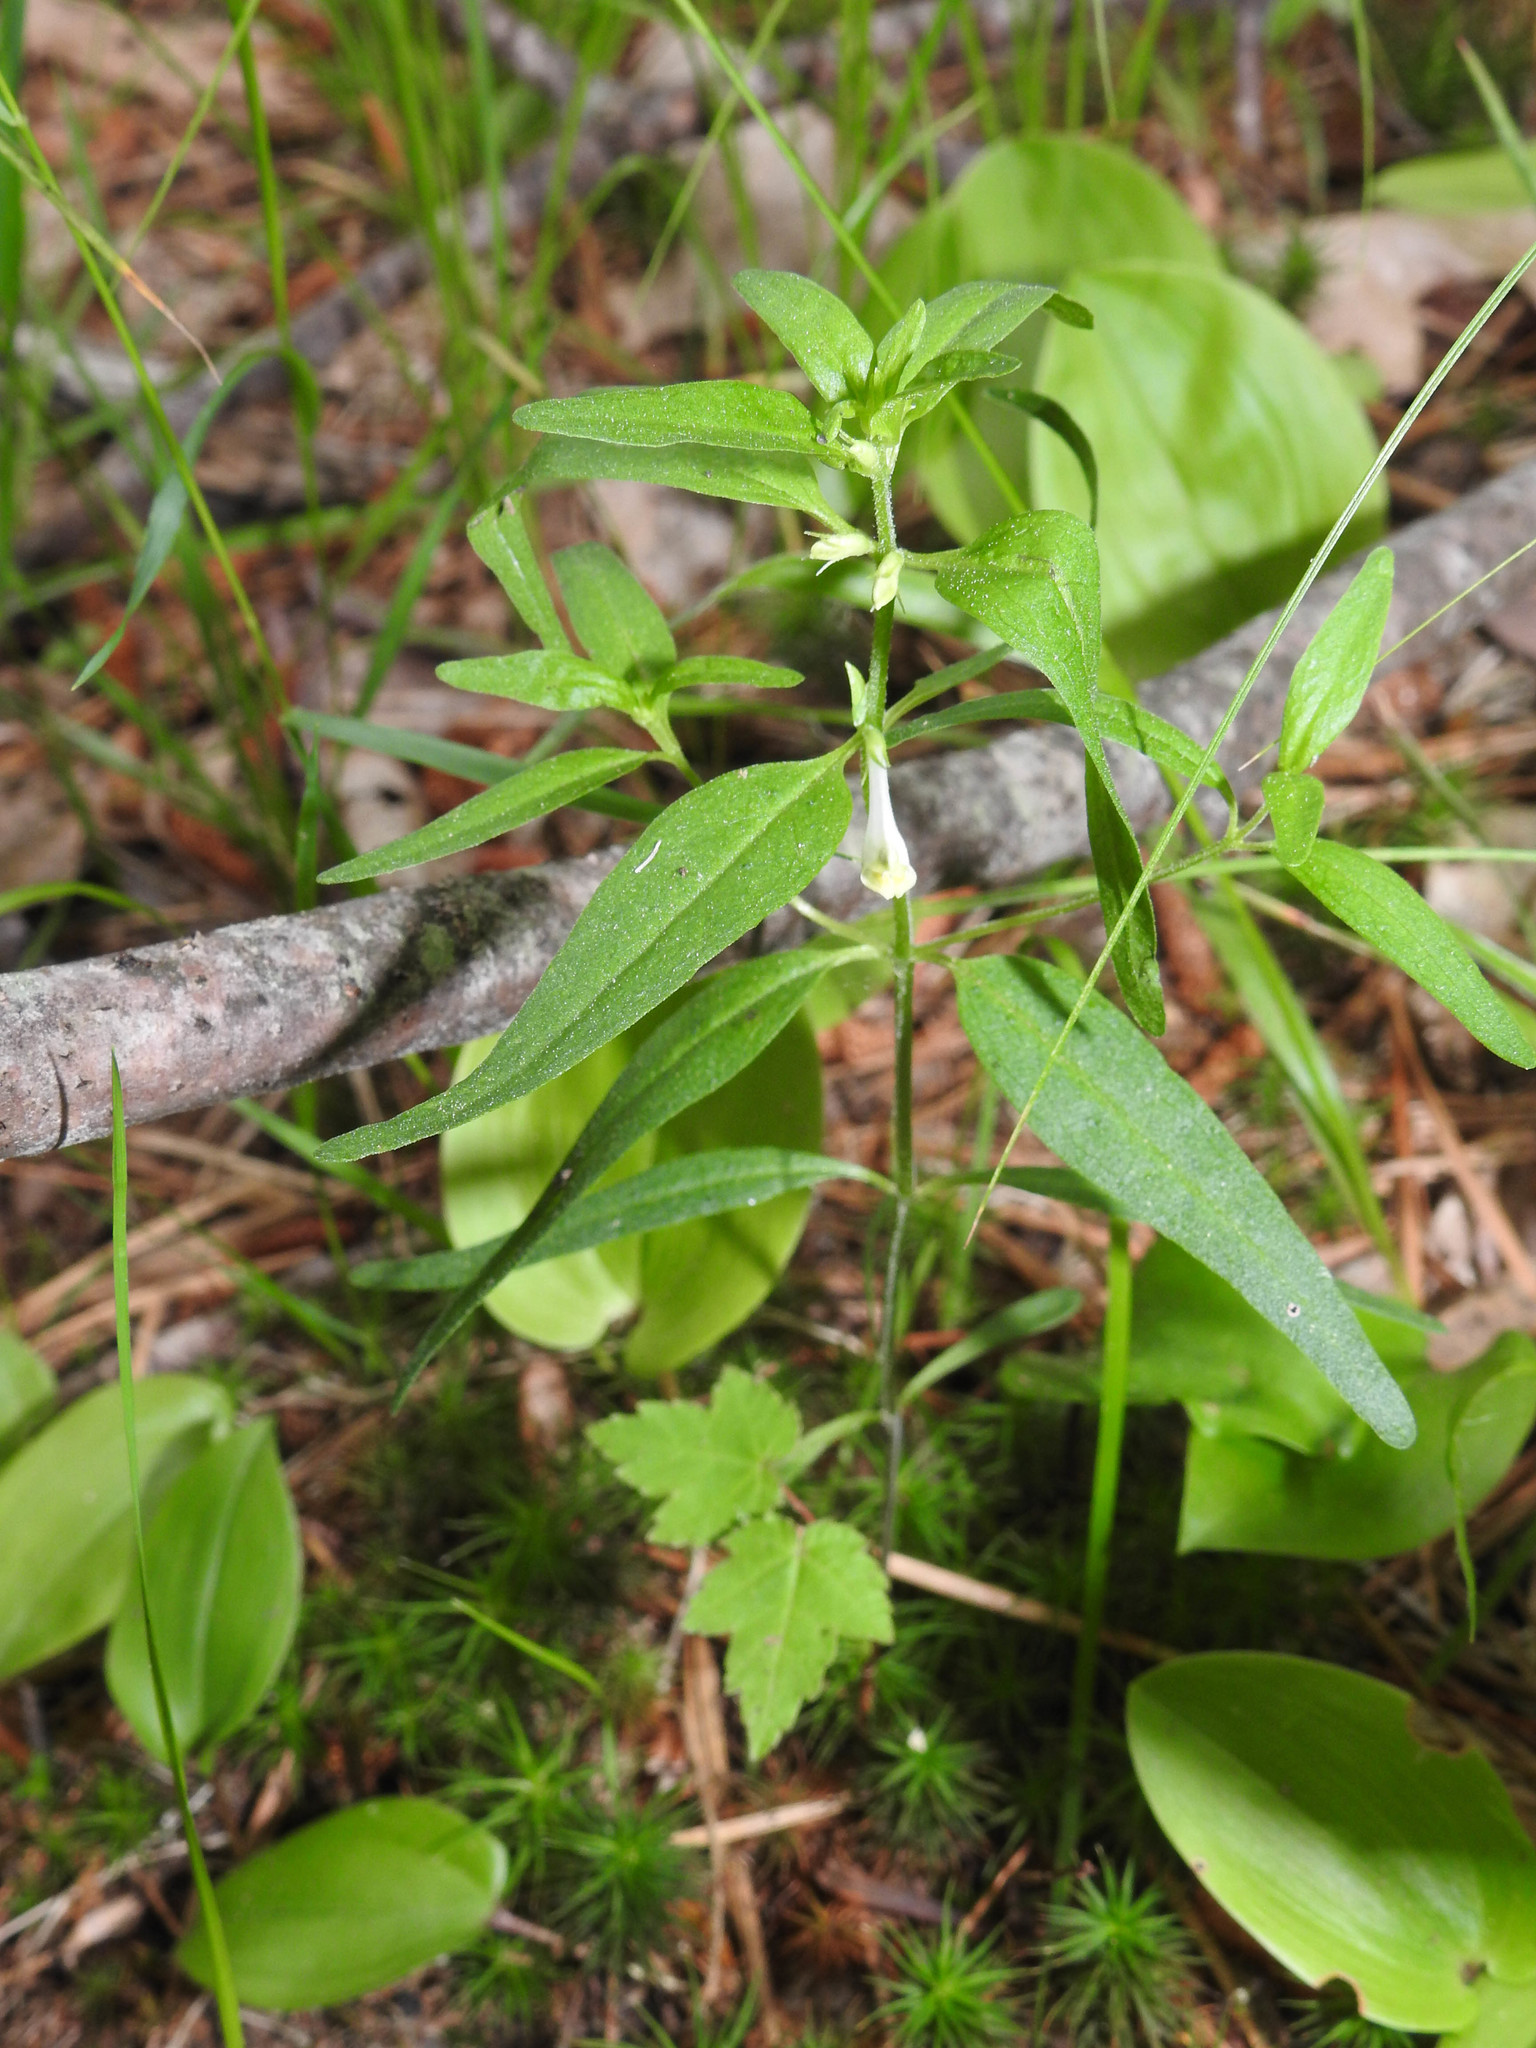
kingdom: Plantae
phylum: Tracheophyta
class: Liliopsida
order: Liliales
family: Liliaceae
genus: Medeola
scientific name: Medeola virginiana
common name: Indian cucumber-root
